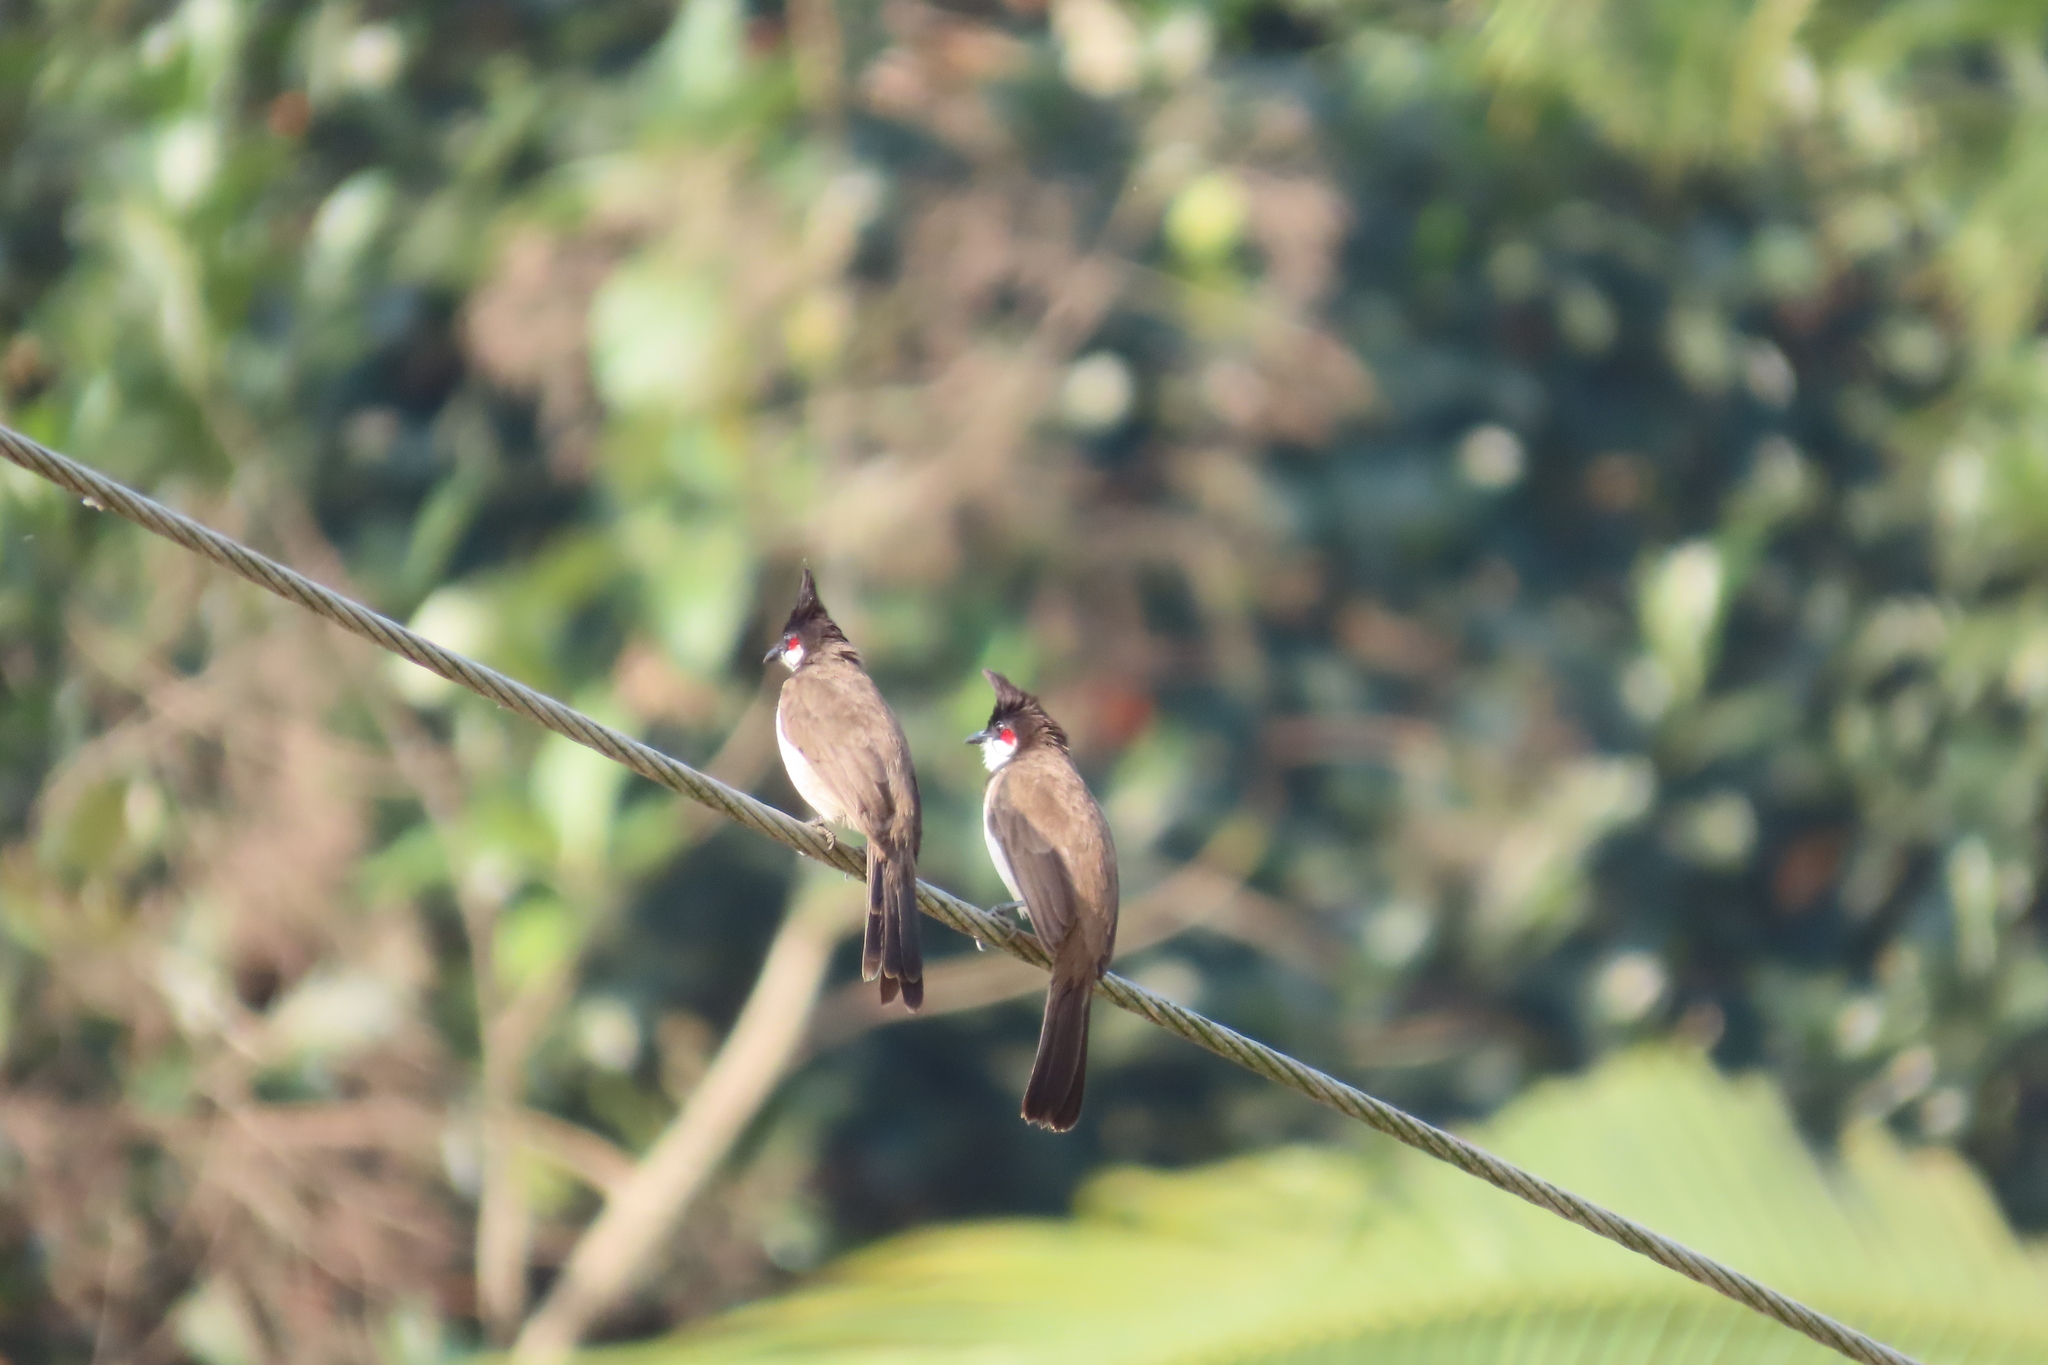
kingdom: Animalia
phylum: Chordata
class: Aves
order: Passeriformes
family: Pycnonotidae
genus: Pycnonotus
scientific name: Pycnonotus jocosus
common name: Red-whiskered bulbul
